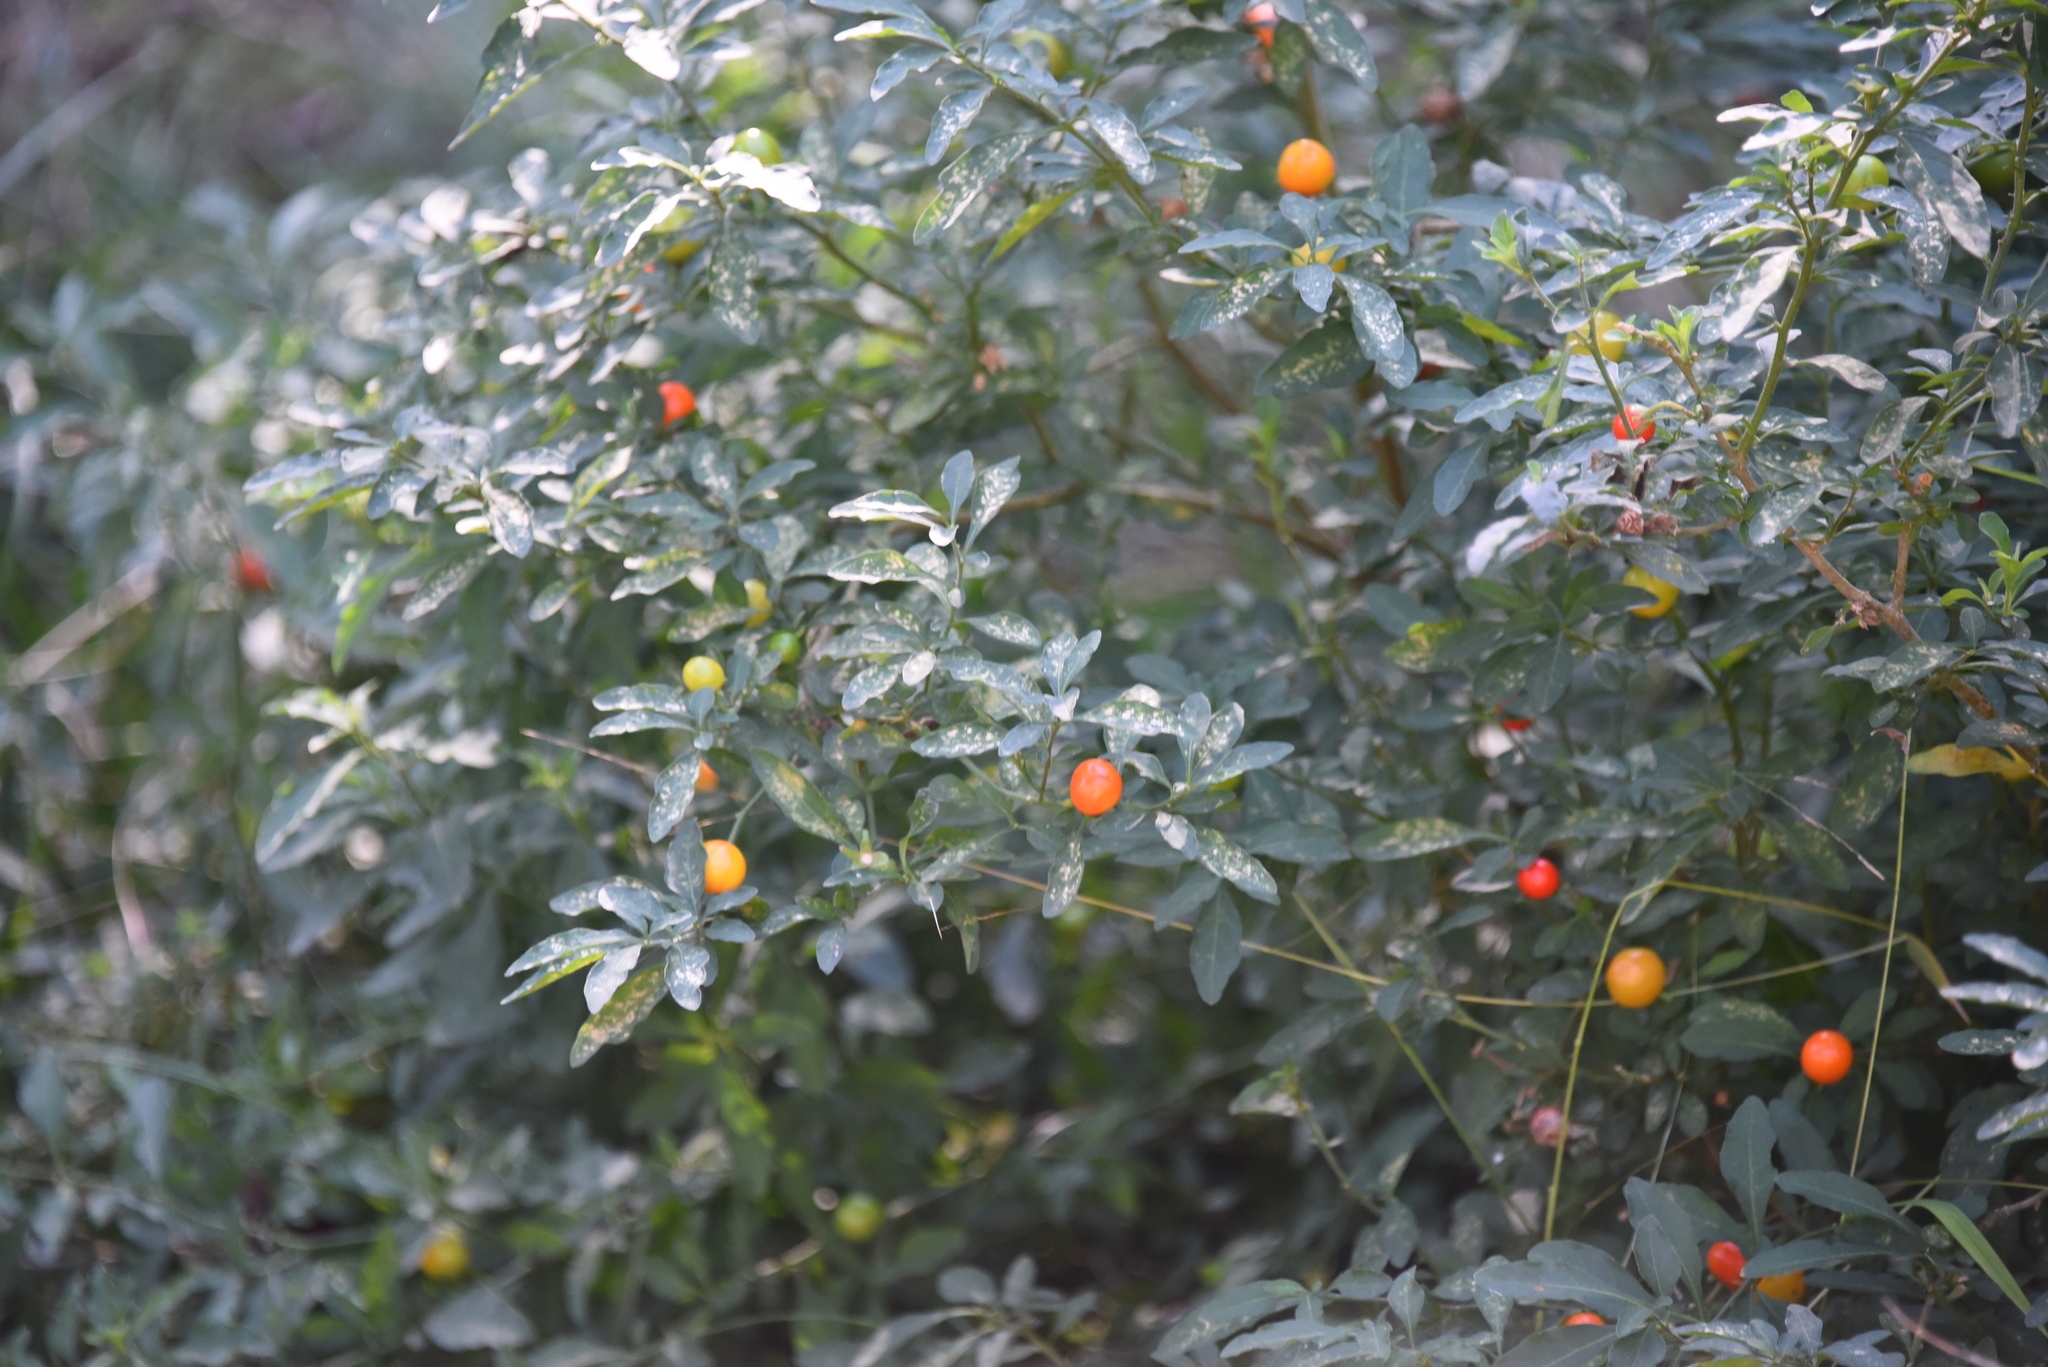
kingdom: Plantae
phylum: Tracheophyta
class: Magnoliopsida
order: Solanales
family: Solanaceae
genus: Solanum
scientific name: Solanum pseudocapsicum
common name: Jerusalem cherry
